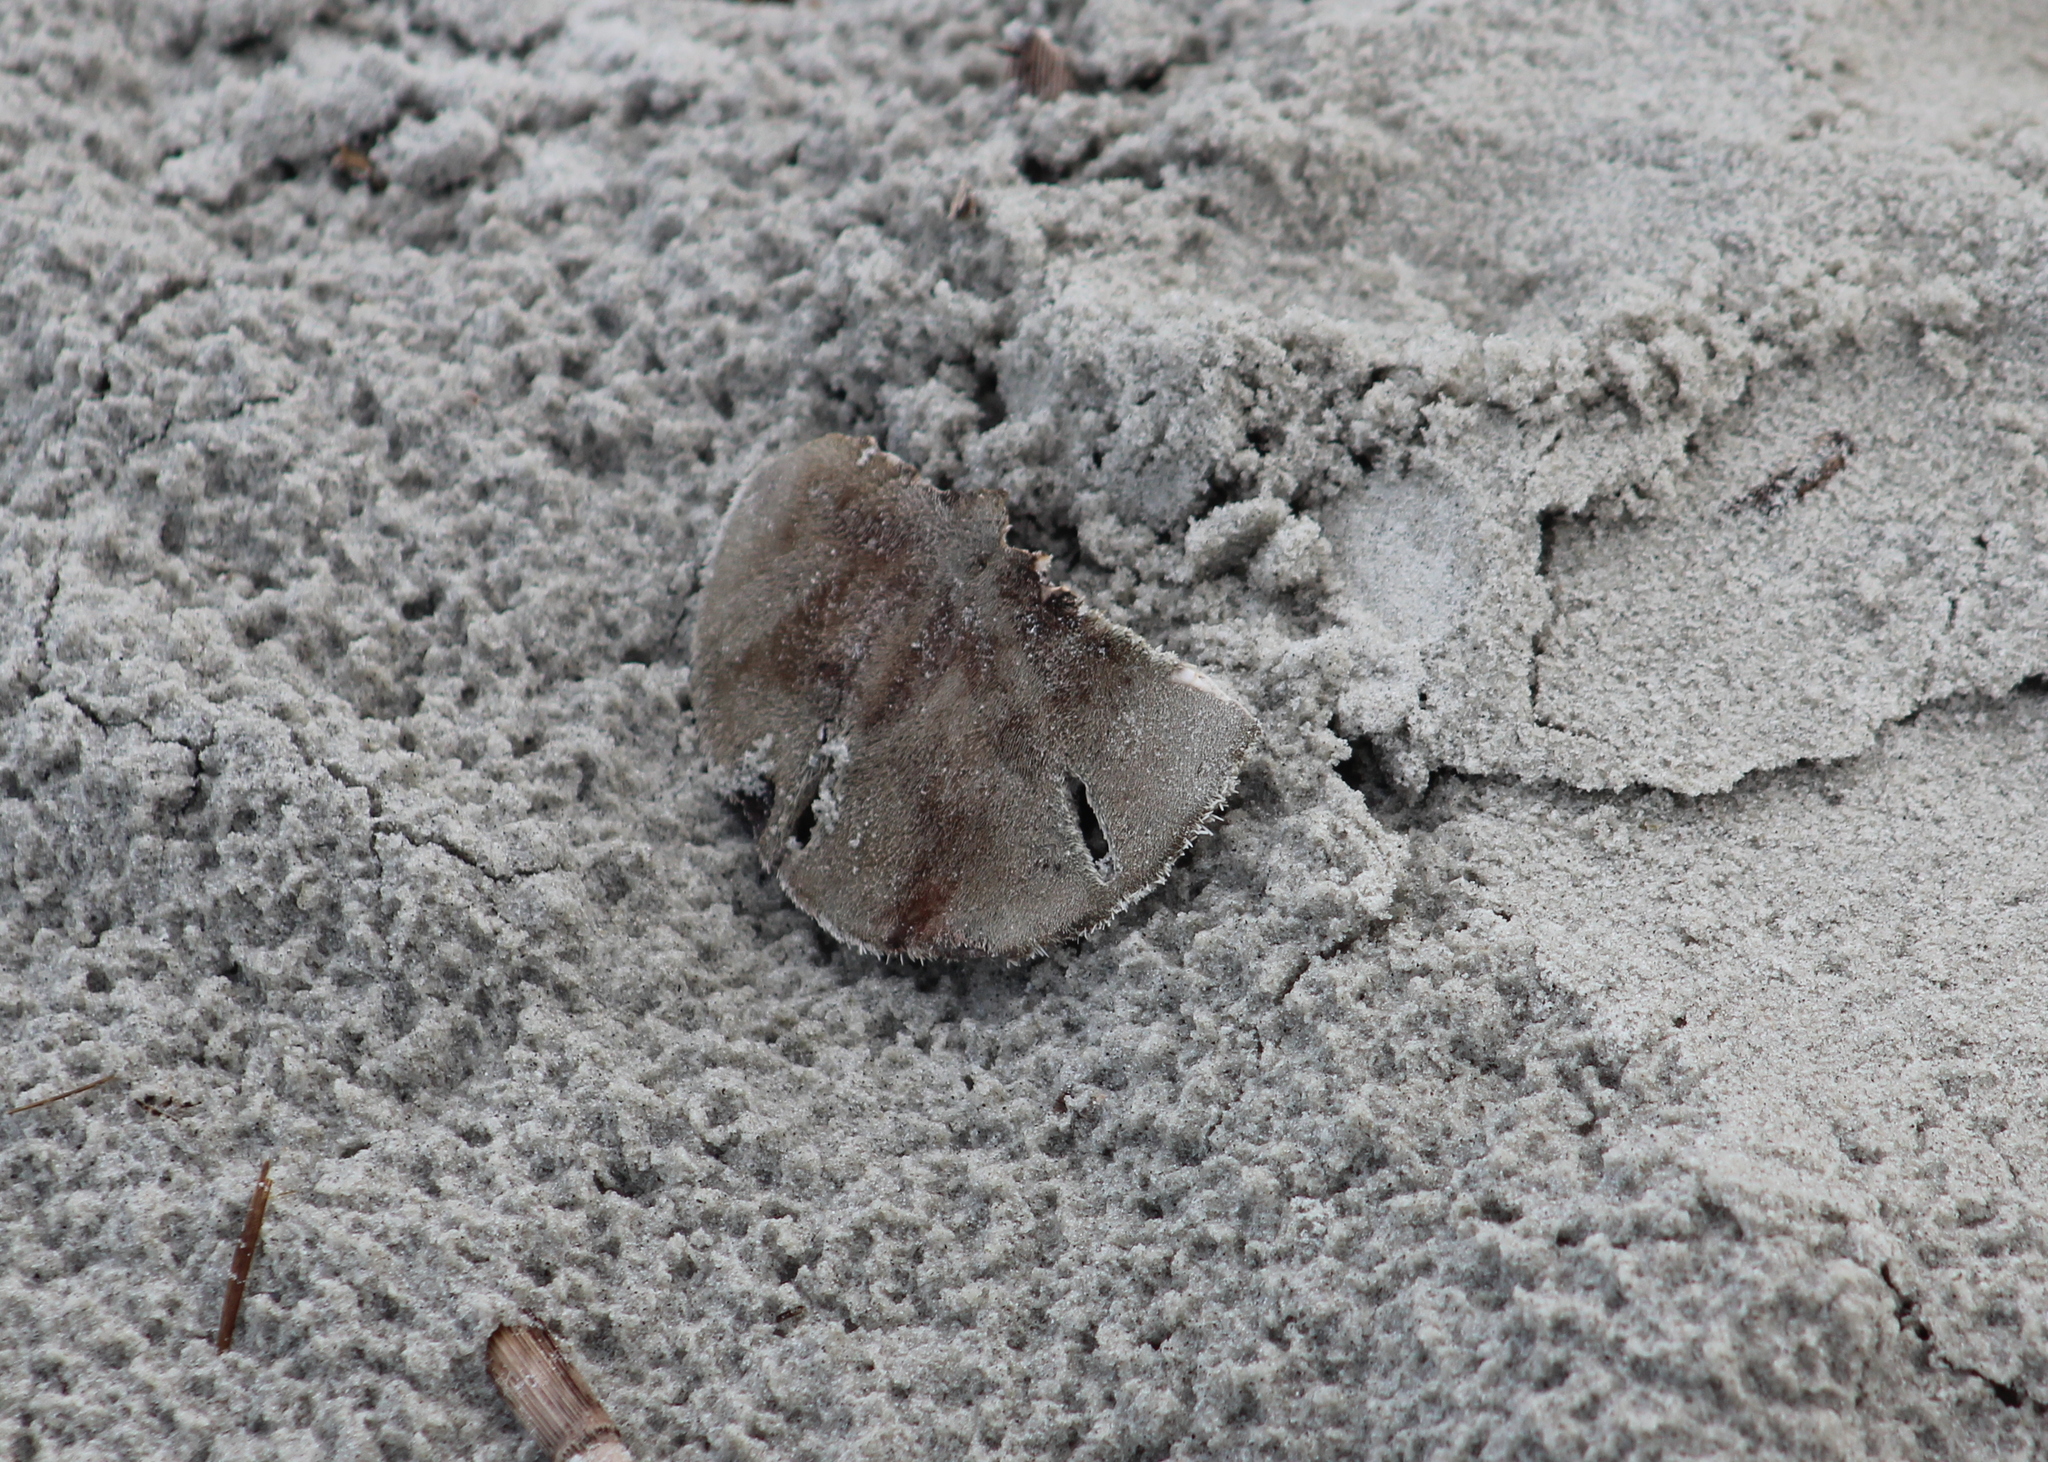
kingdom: Animalia
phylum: Echinodermata
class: Echinoidea
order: Echinolampadacea
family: Mellitidae
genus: Mellita
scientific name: Mellita isometra
